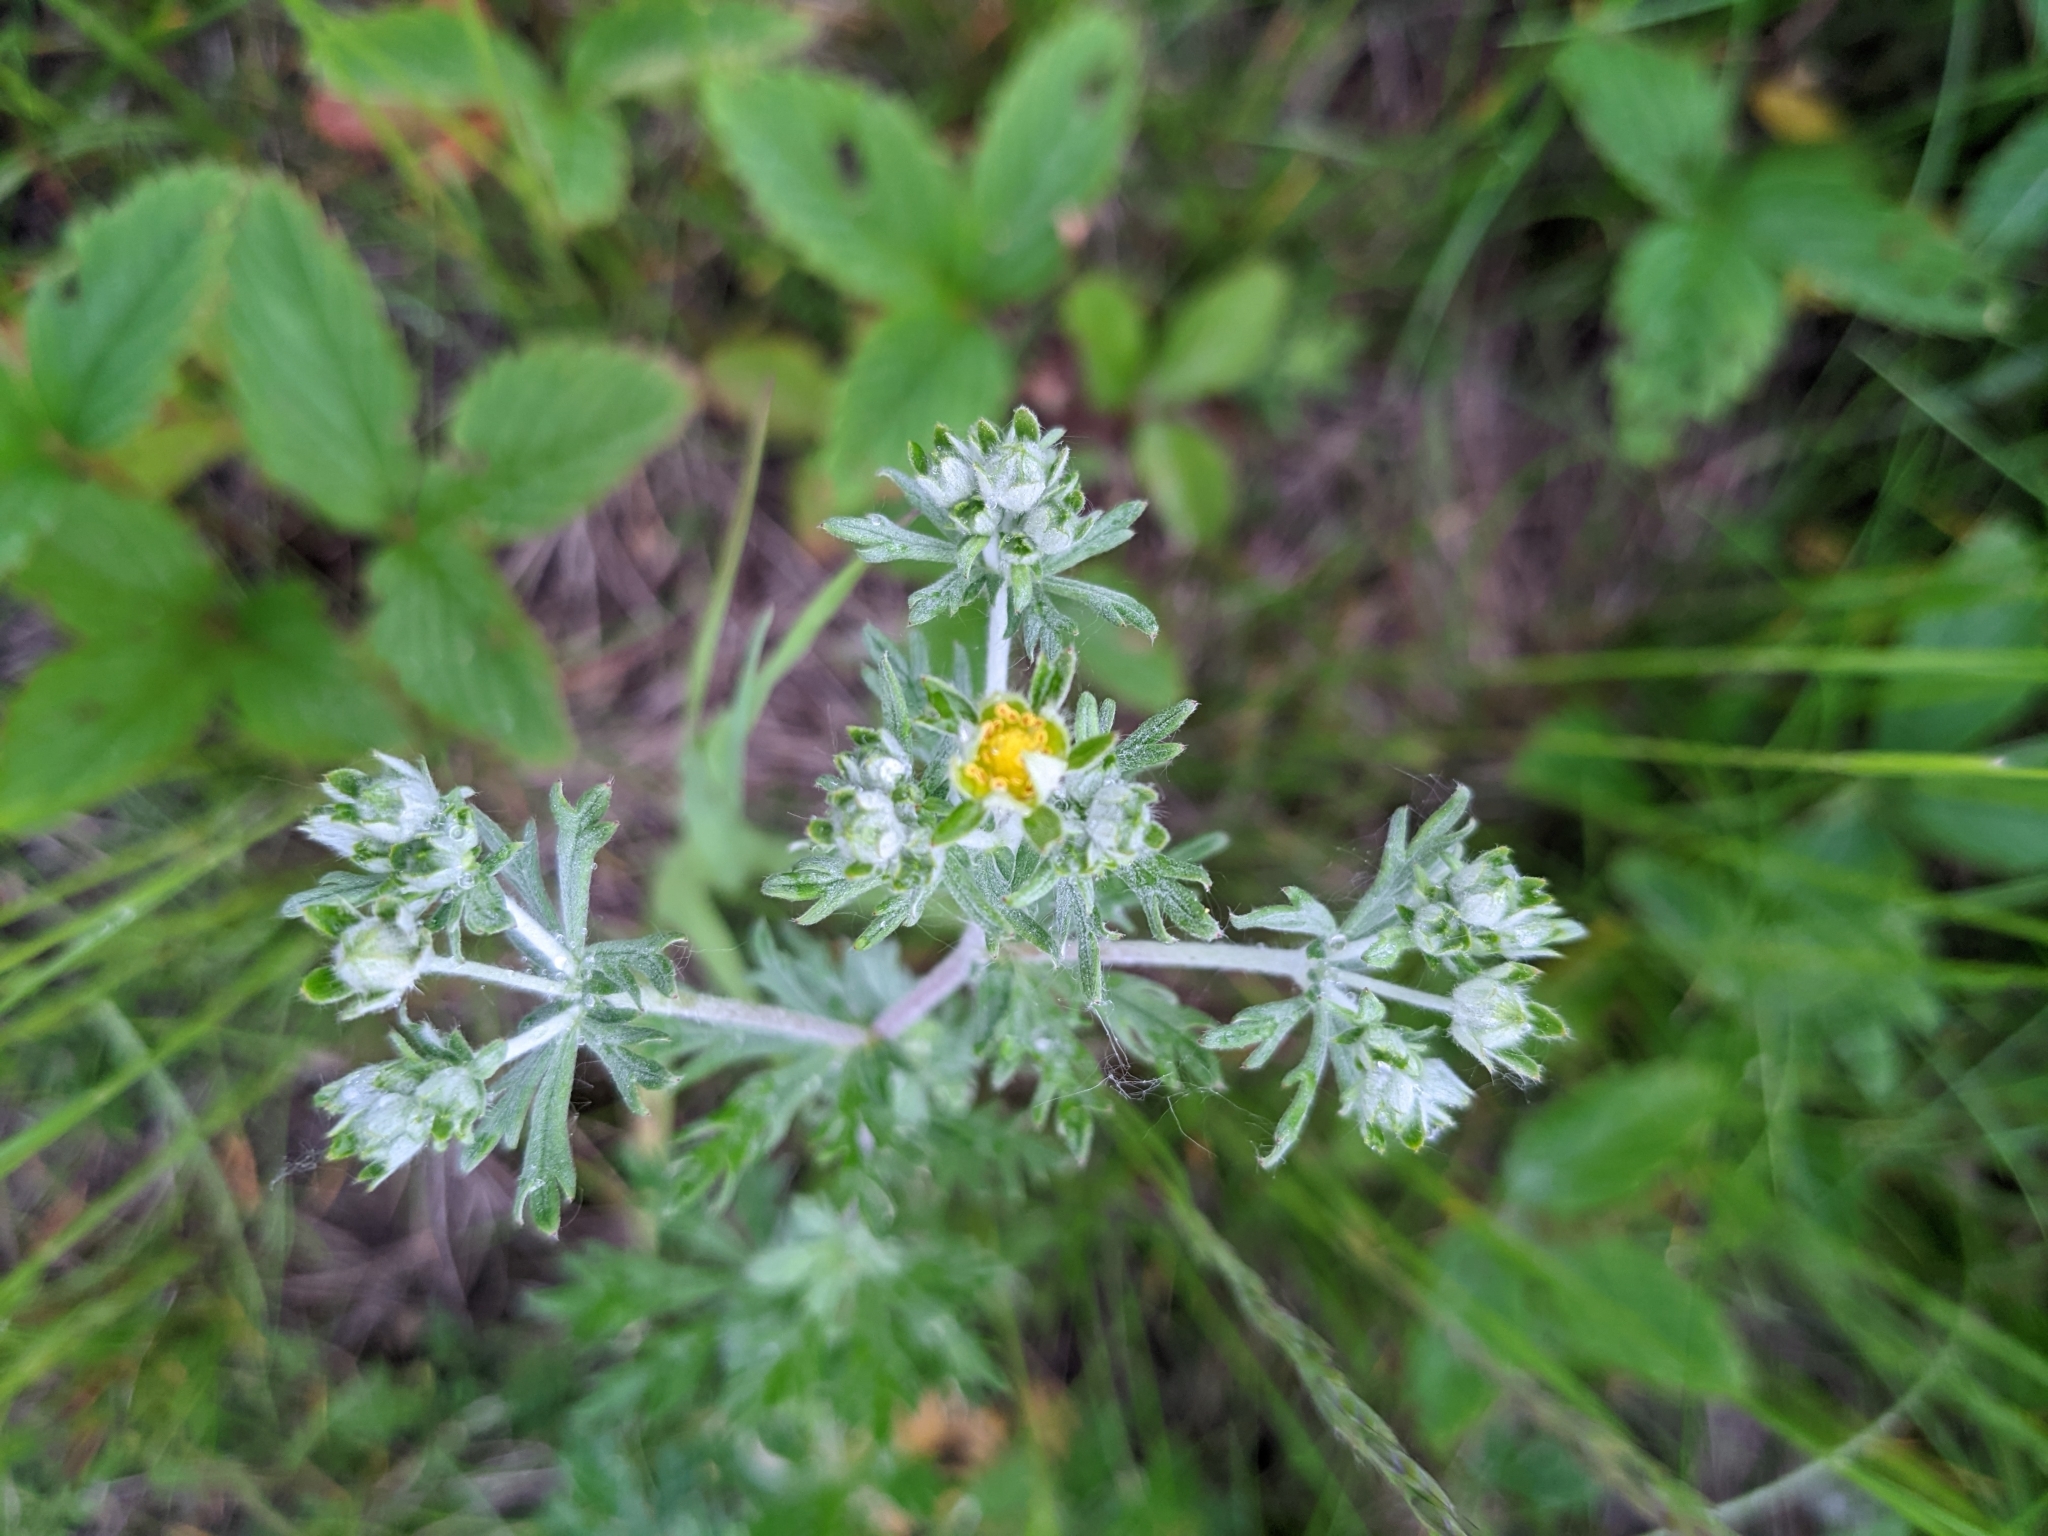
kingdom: Plantae
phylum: Tracheophyta
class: Magnoliopsida
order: Rosales
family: Rosaceae
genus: Potentilla
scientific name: Potentilla argentea
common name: Hoary cinquefoil
